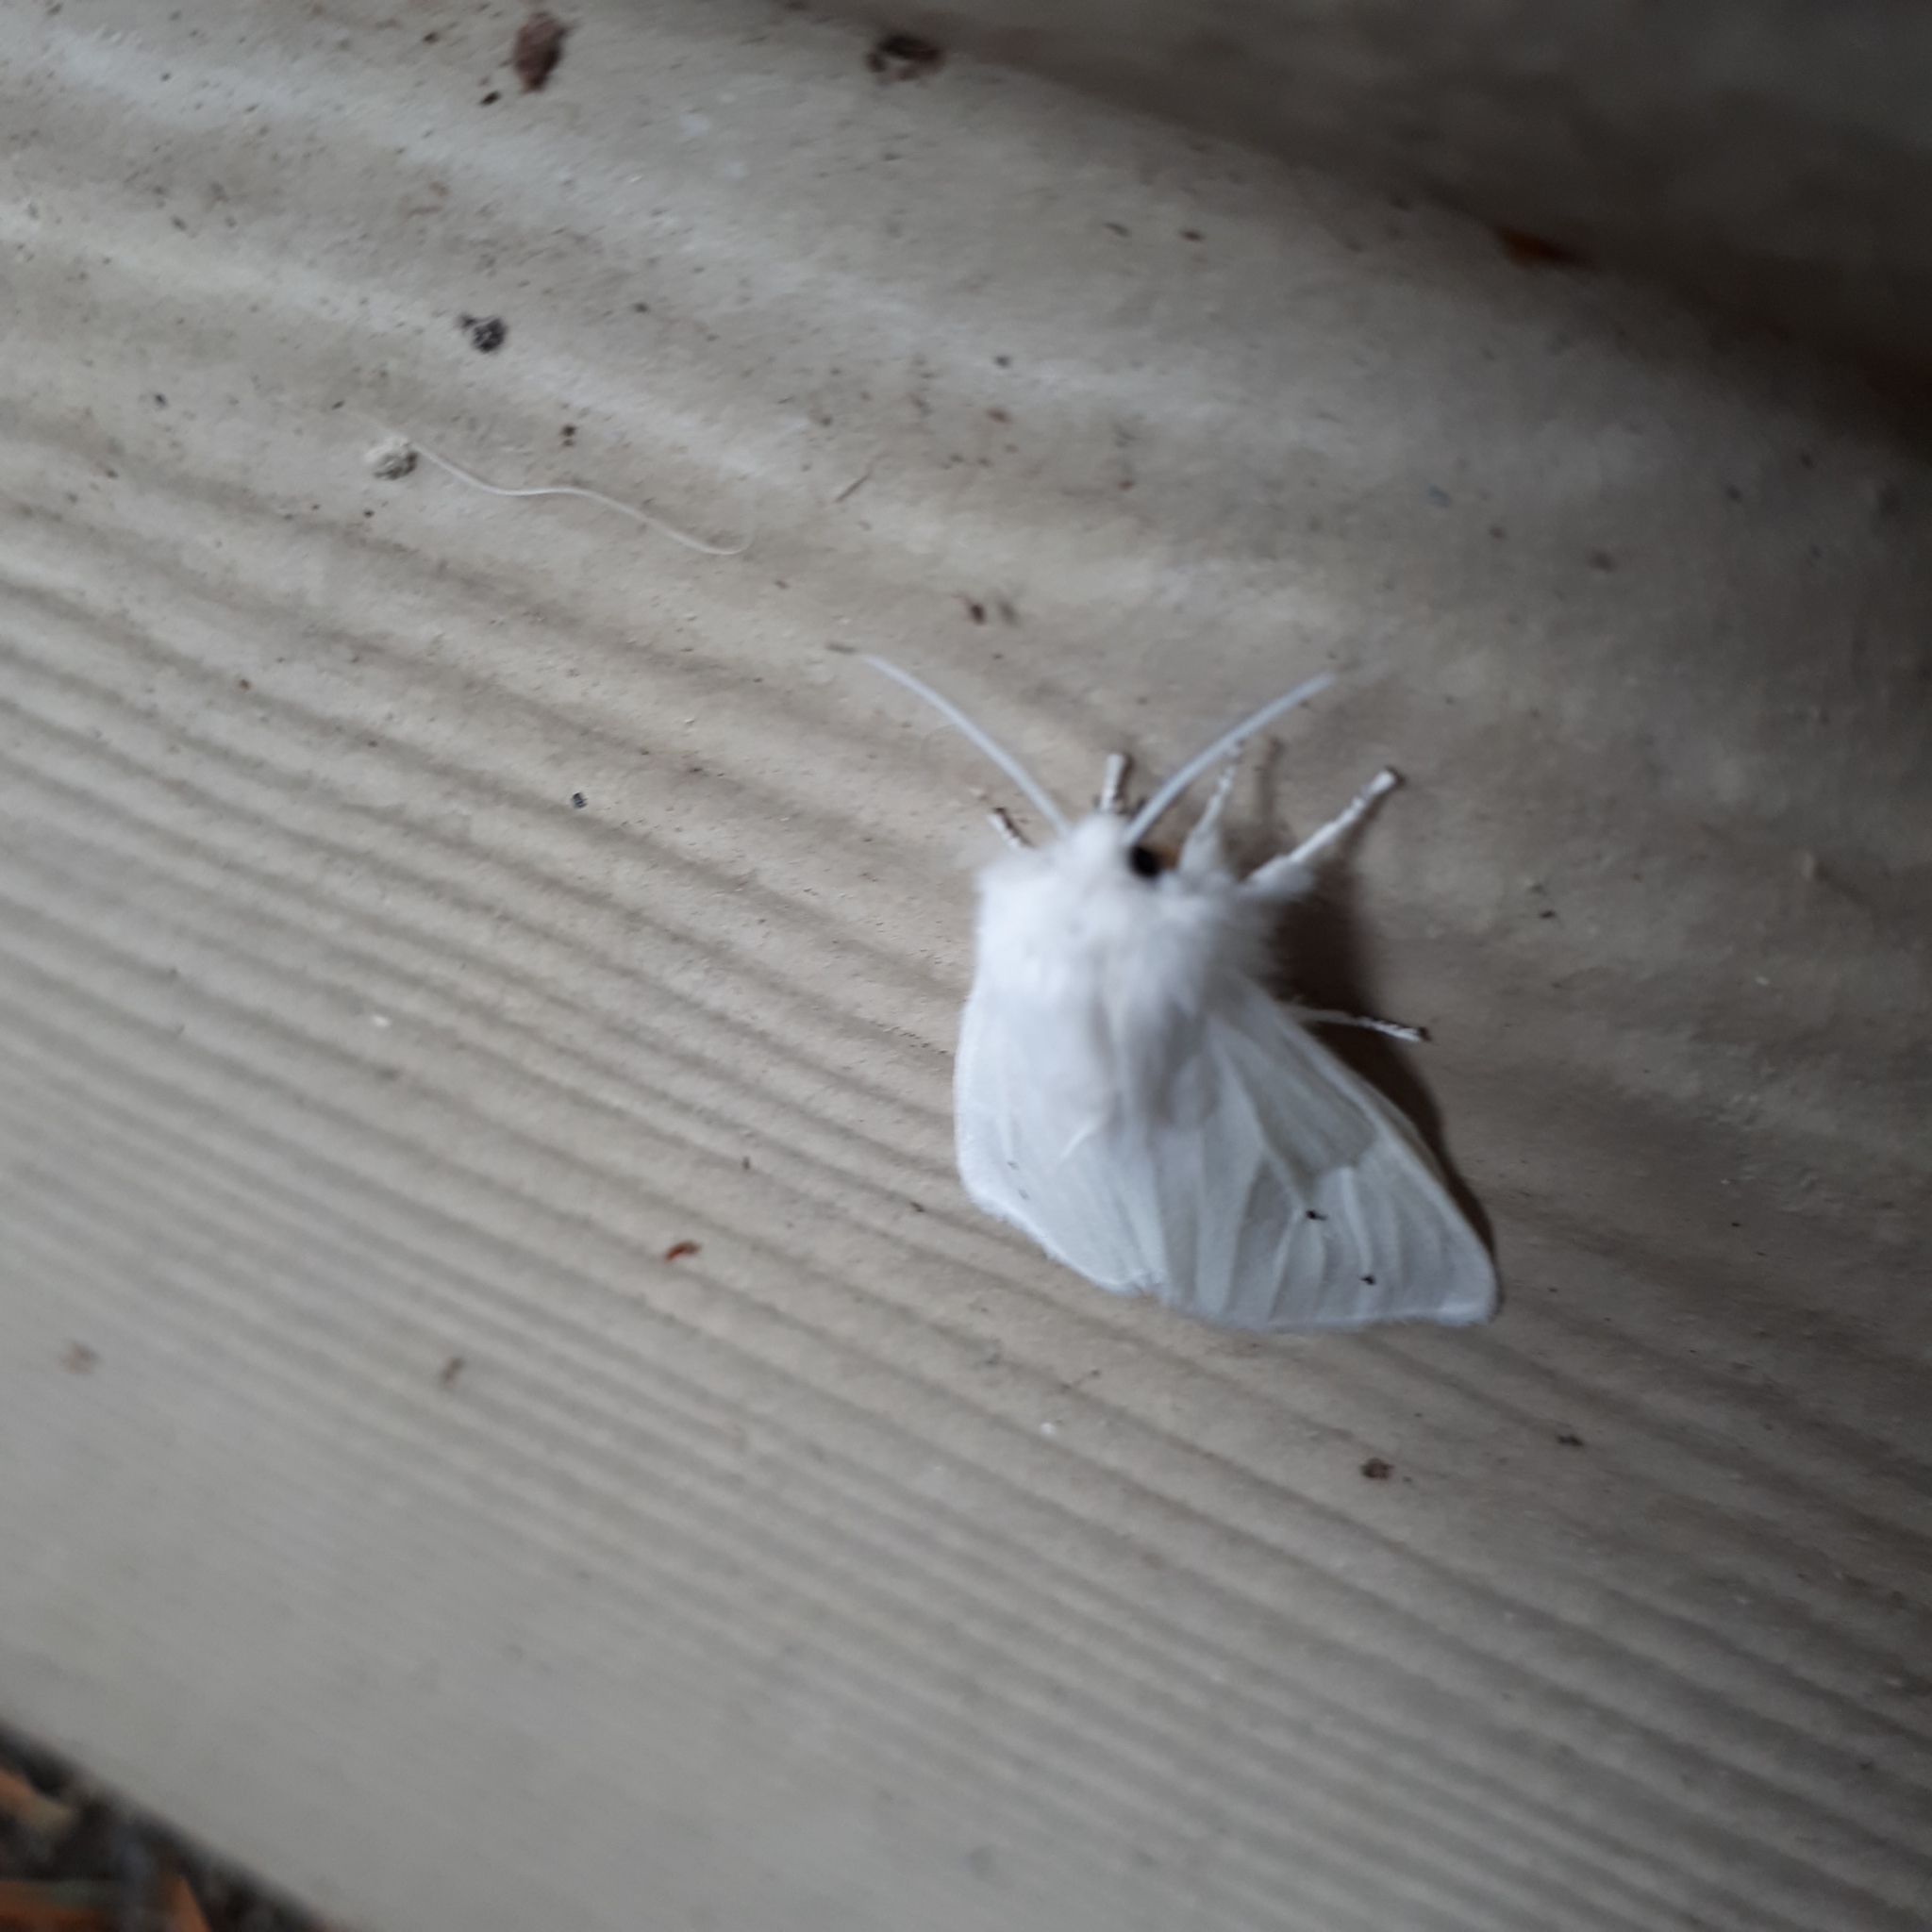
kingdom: Animalia
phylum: Arthropoda
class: Insecta
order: Lepidoptera
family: Erebidae
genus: Spilosoma
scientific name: Spilosoma virginica
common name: Virginia tiger moth
